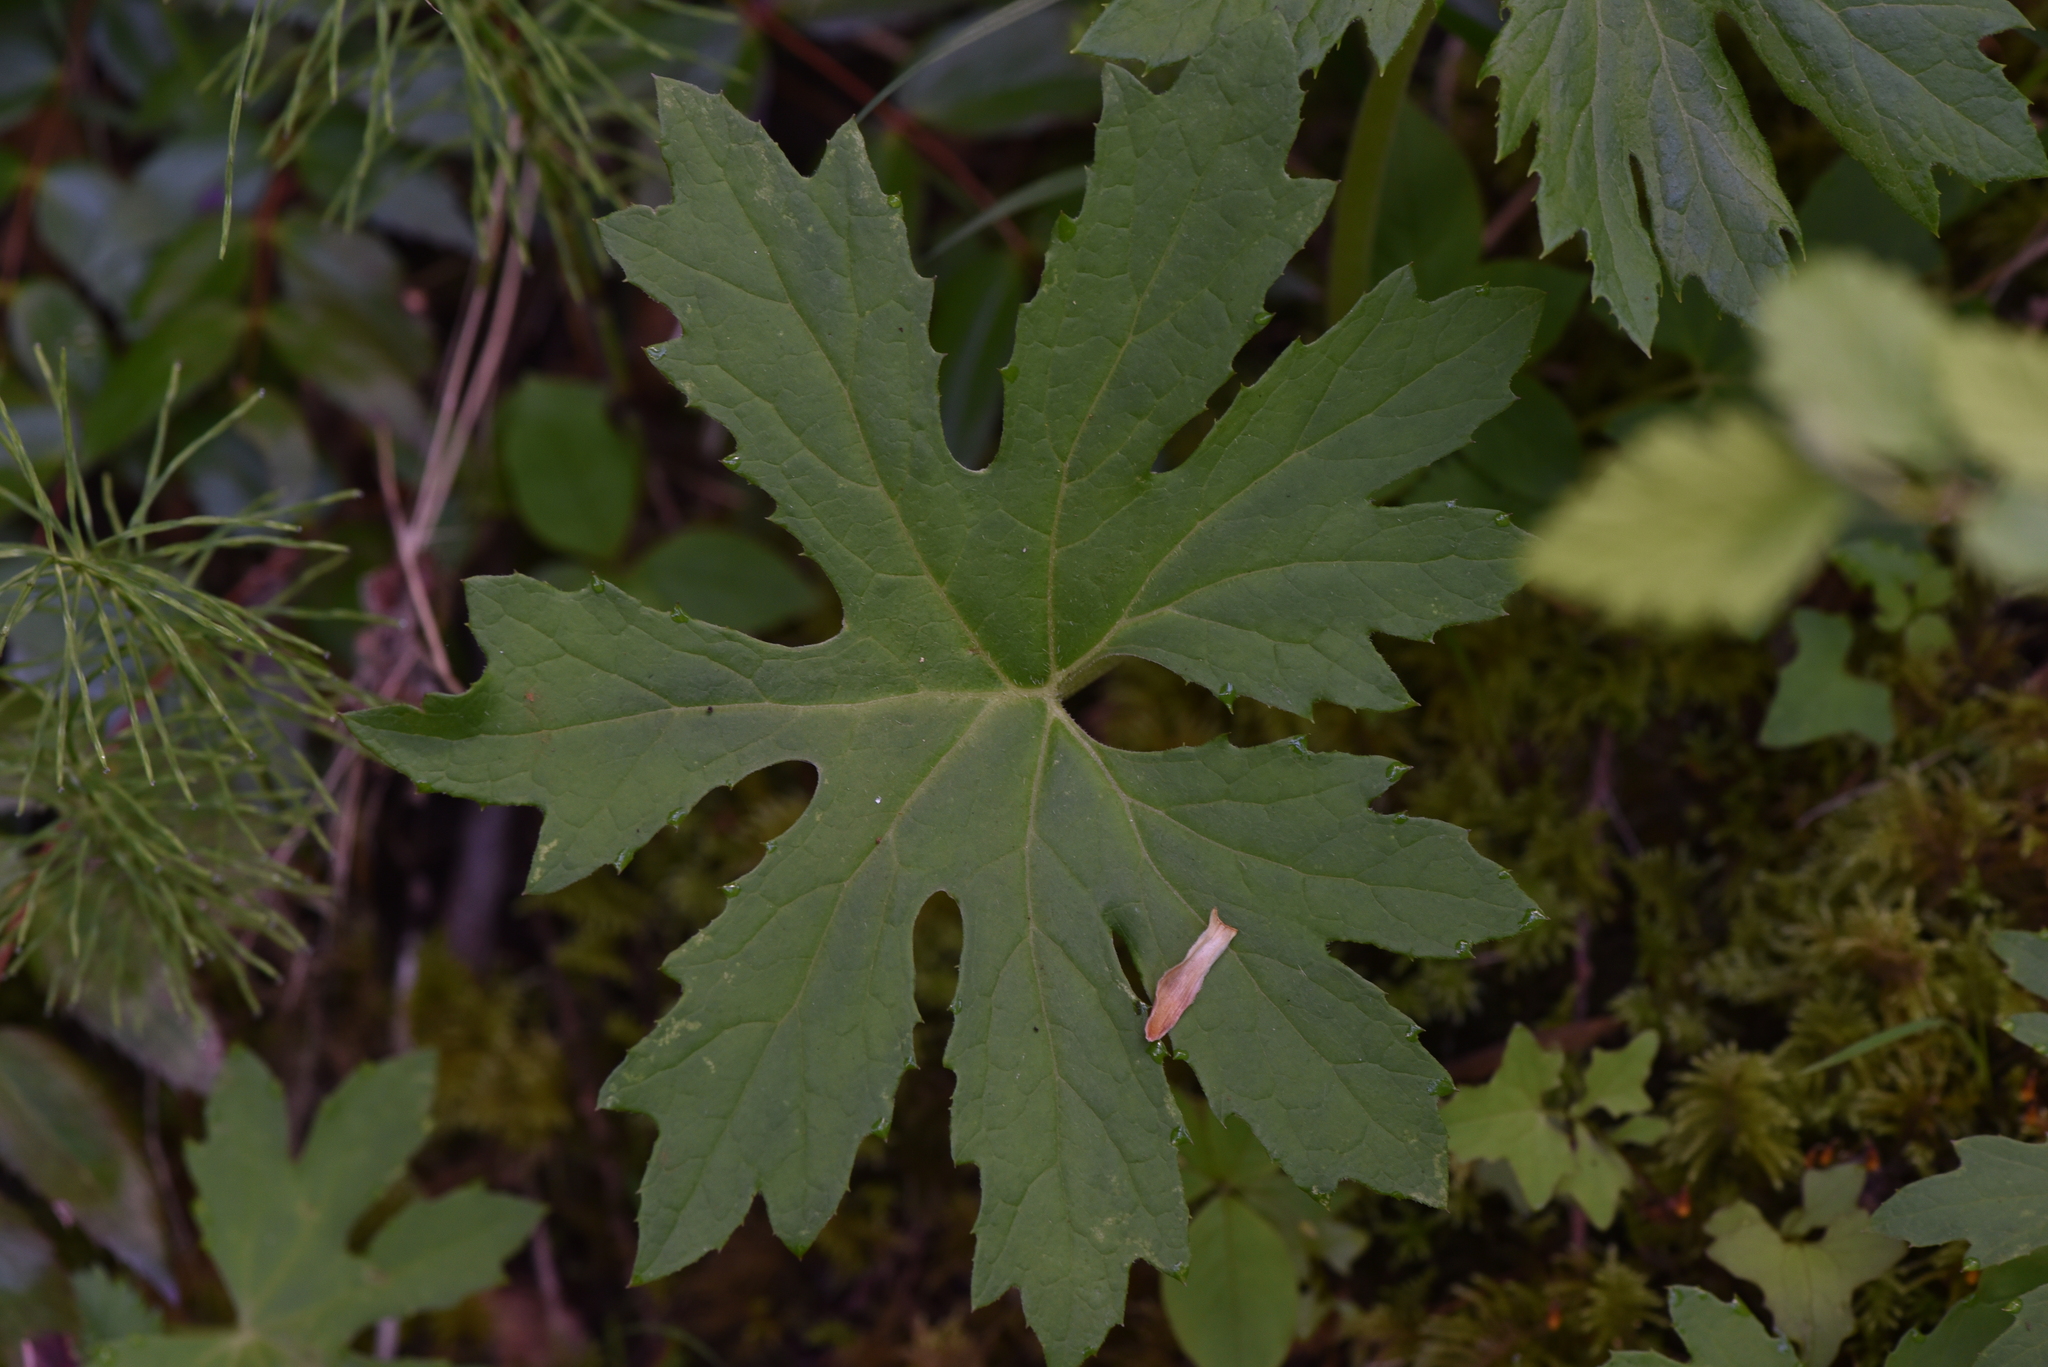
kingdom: Plantae
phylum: Tracheophyta
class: Magnoliopsida
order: Asterales
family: Asteraceae
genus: Petasites
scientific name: Petasites frigidus
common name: Arctic butterbur
